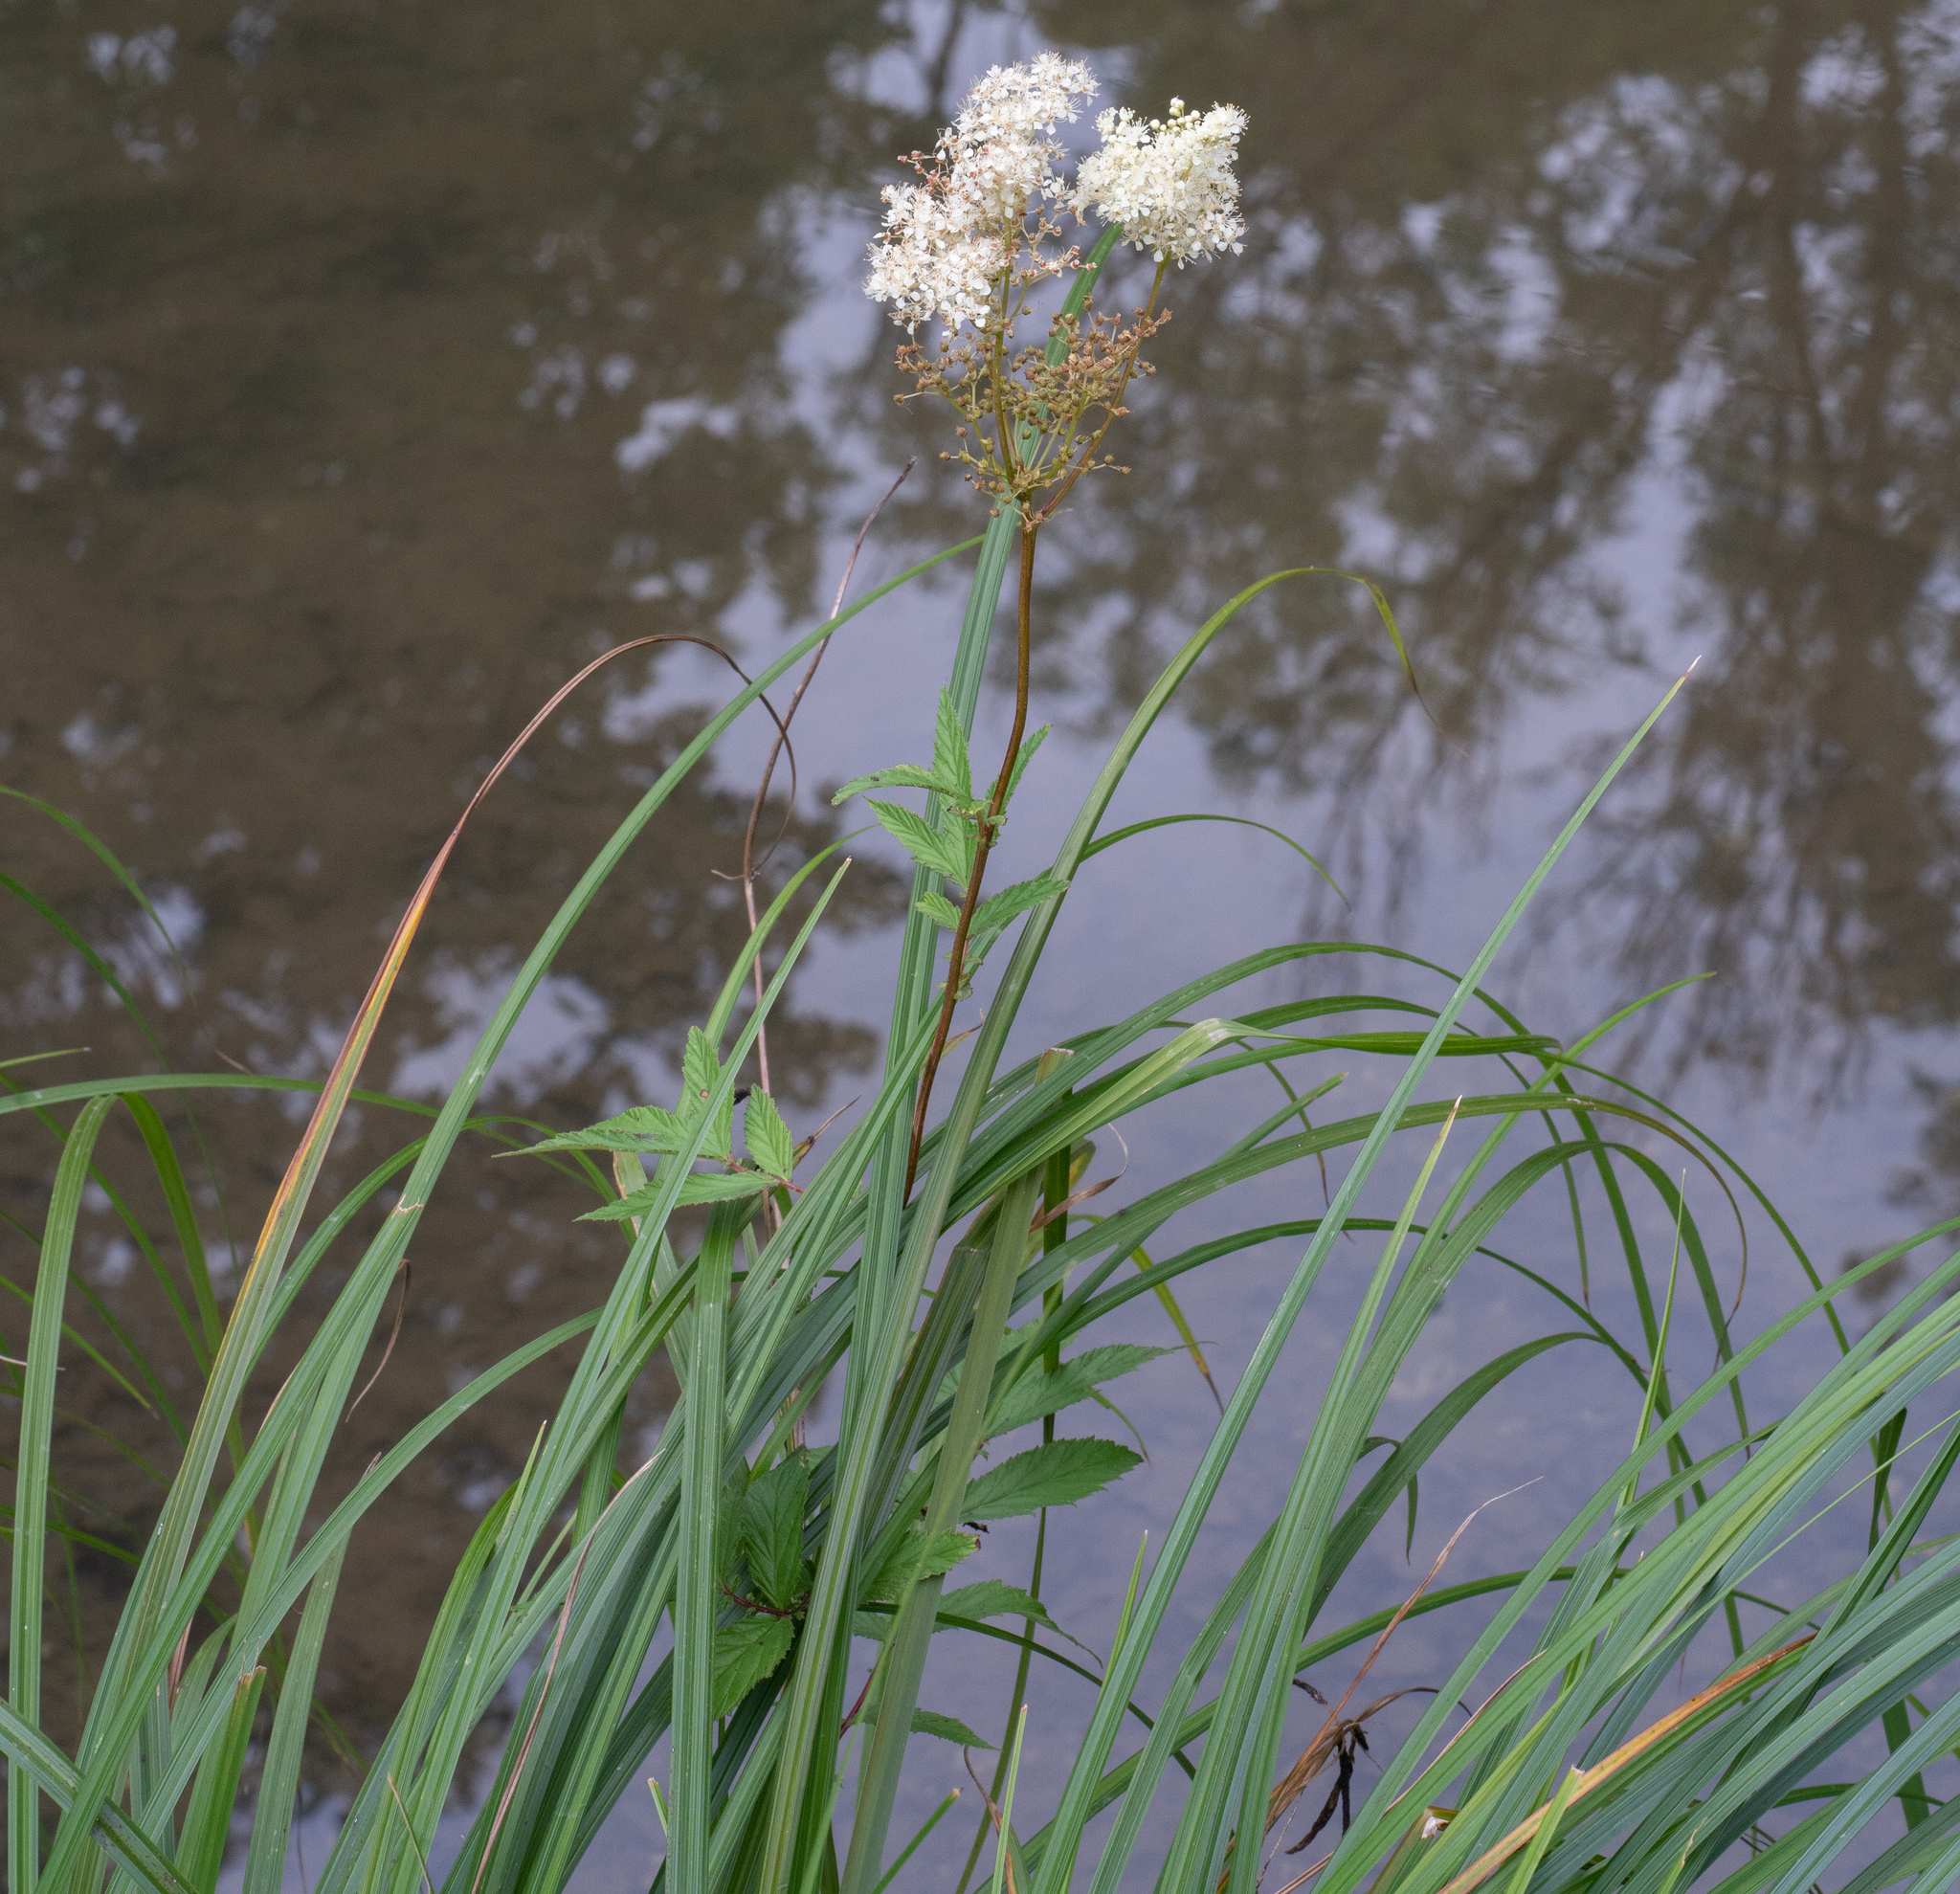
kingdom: Plantae
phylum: Tracheophyta
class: Magnoliopsida
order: Rosales
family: Rosaceae
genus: Filipendula
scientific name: Filipendula ulmaria
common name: Meadowsweet
